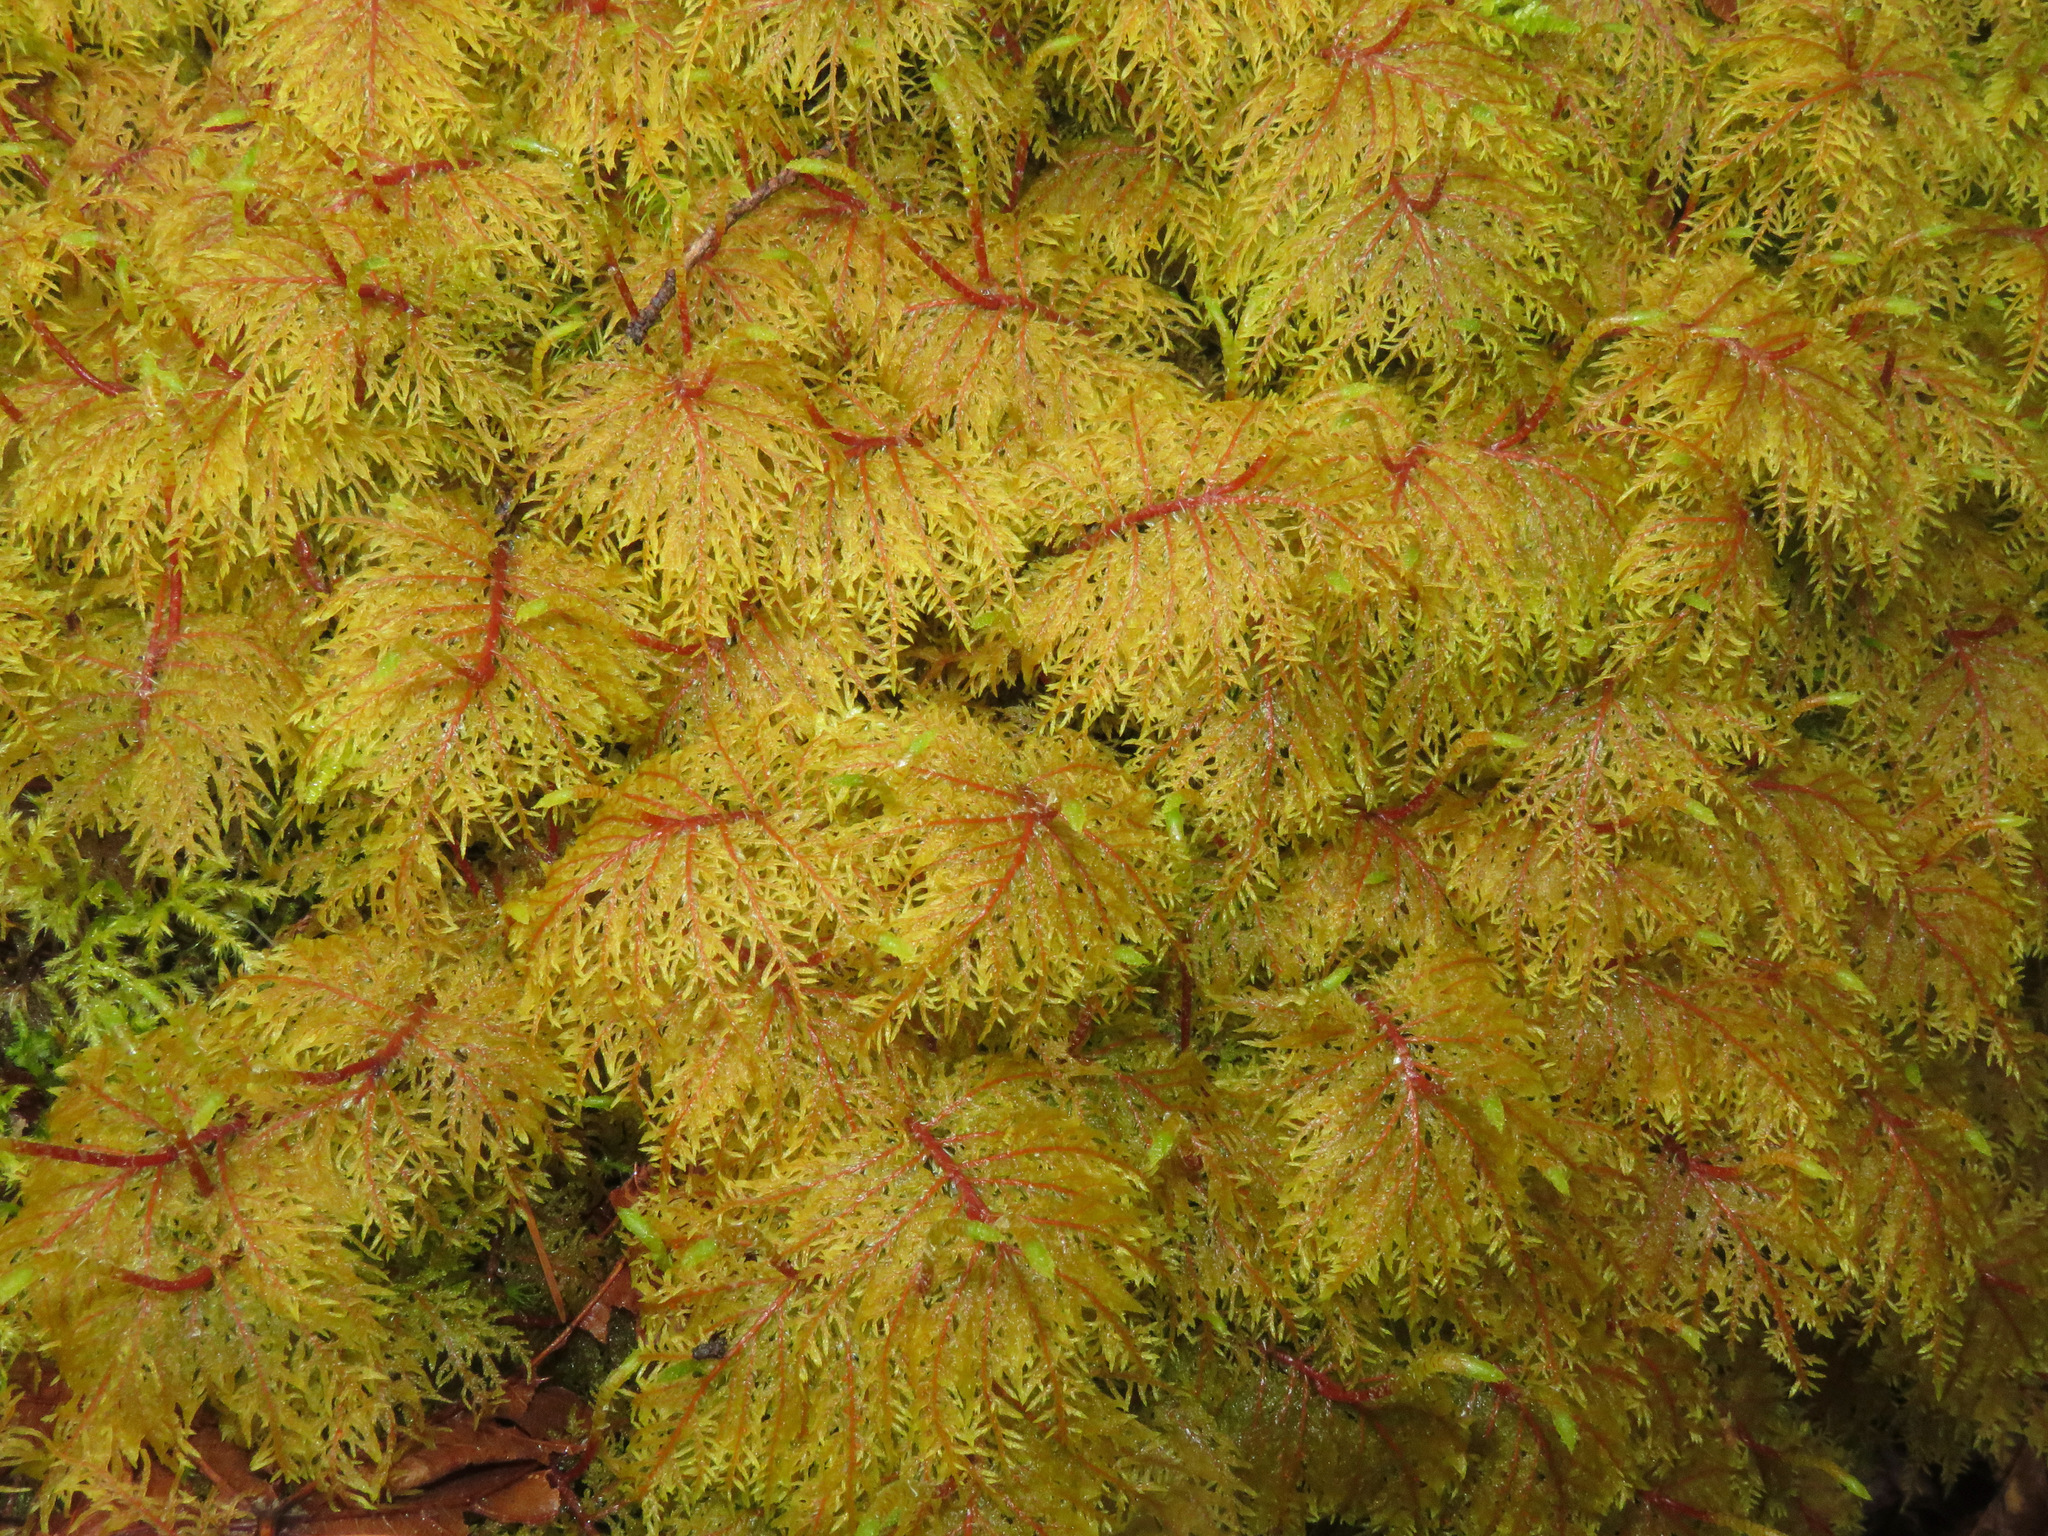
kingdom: Plantae
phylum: Bryophyta
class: Bryopsida
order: Hypnales
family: Hylocomiaceae
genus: Hylocomium
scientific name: Hylocomium splendens
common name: Stairstep moss
